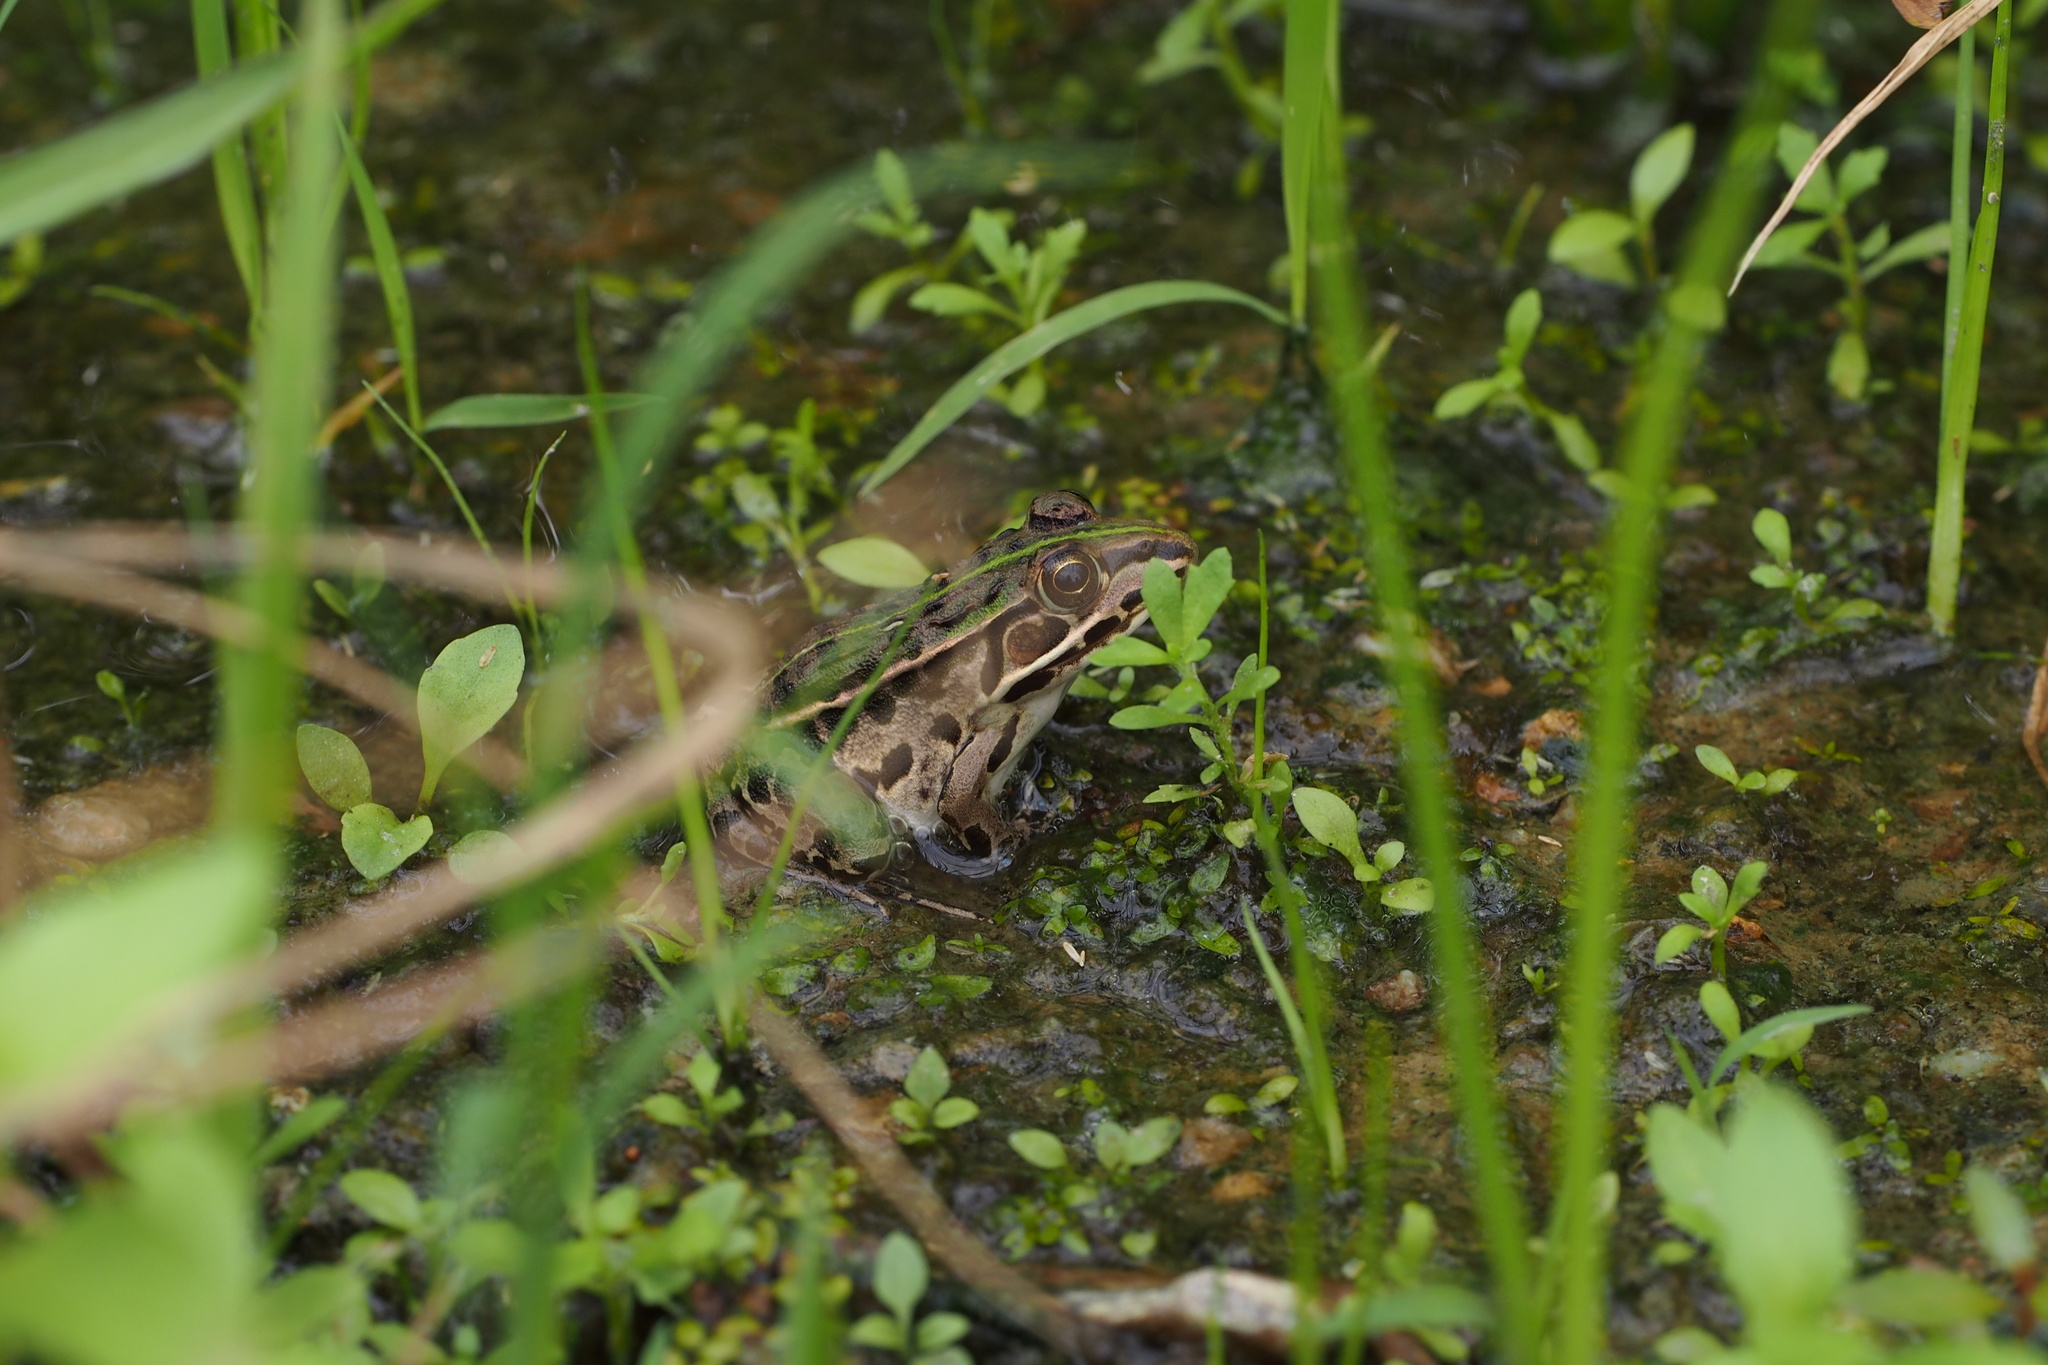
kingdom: Animalia
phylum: Chordata
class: Amphibia
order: Anura
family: Ranidae
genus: Pelophylax
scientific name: Pelophylax nigromaculatus
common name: Black-spotted pond frog
